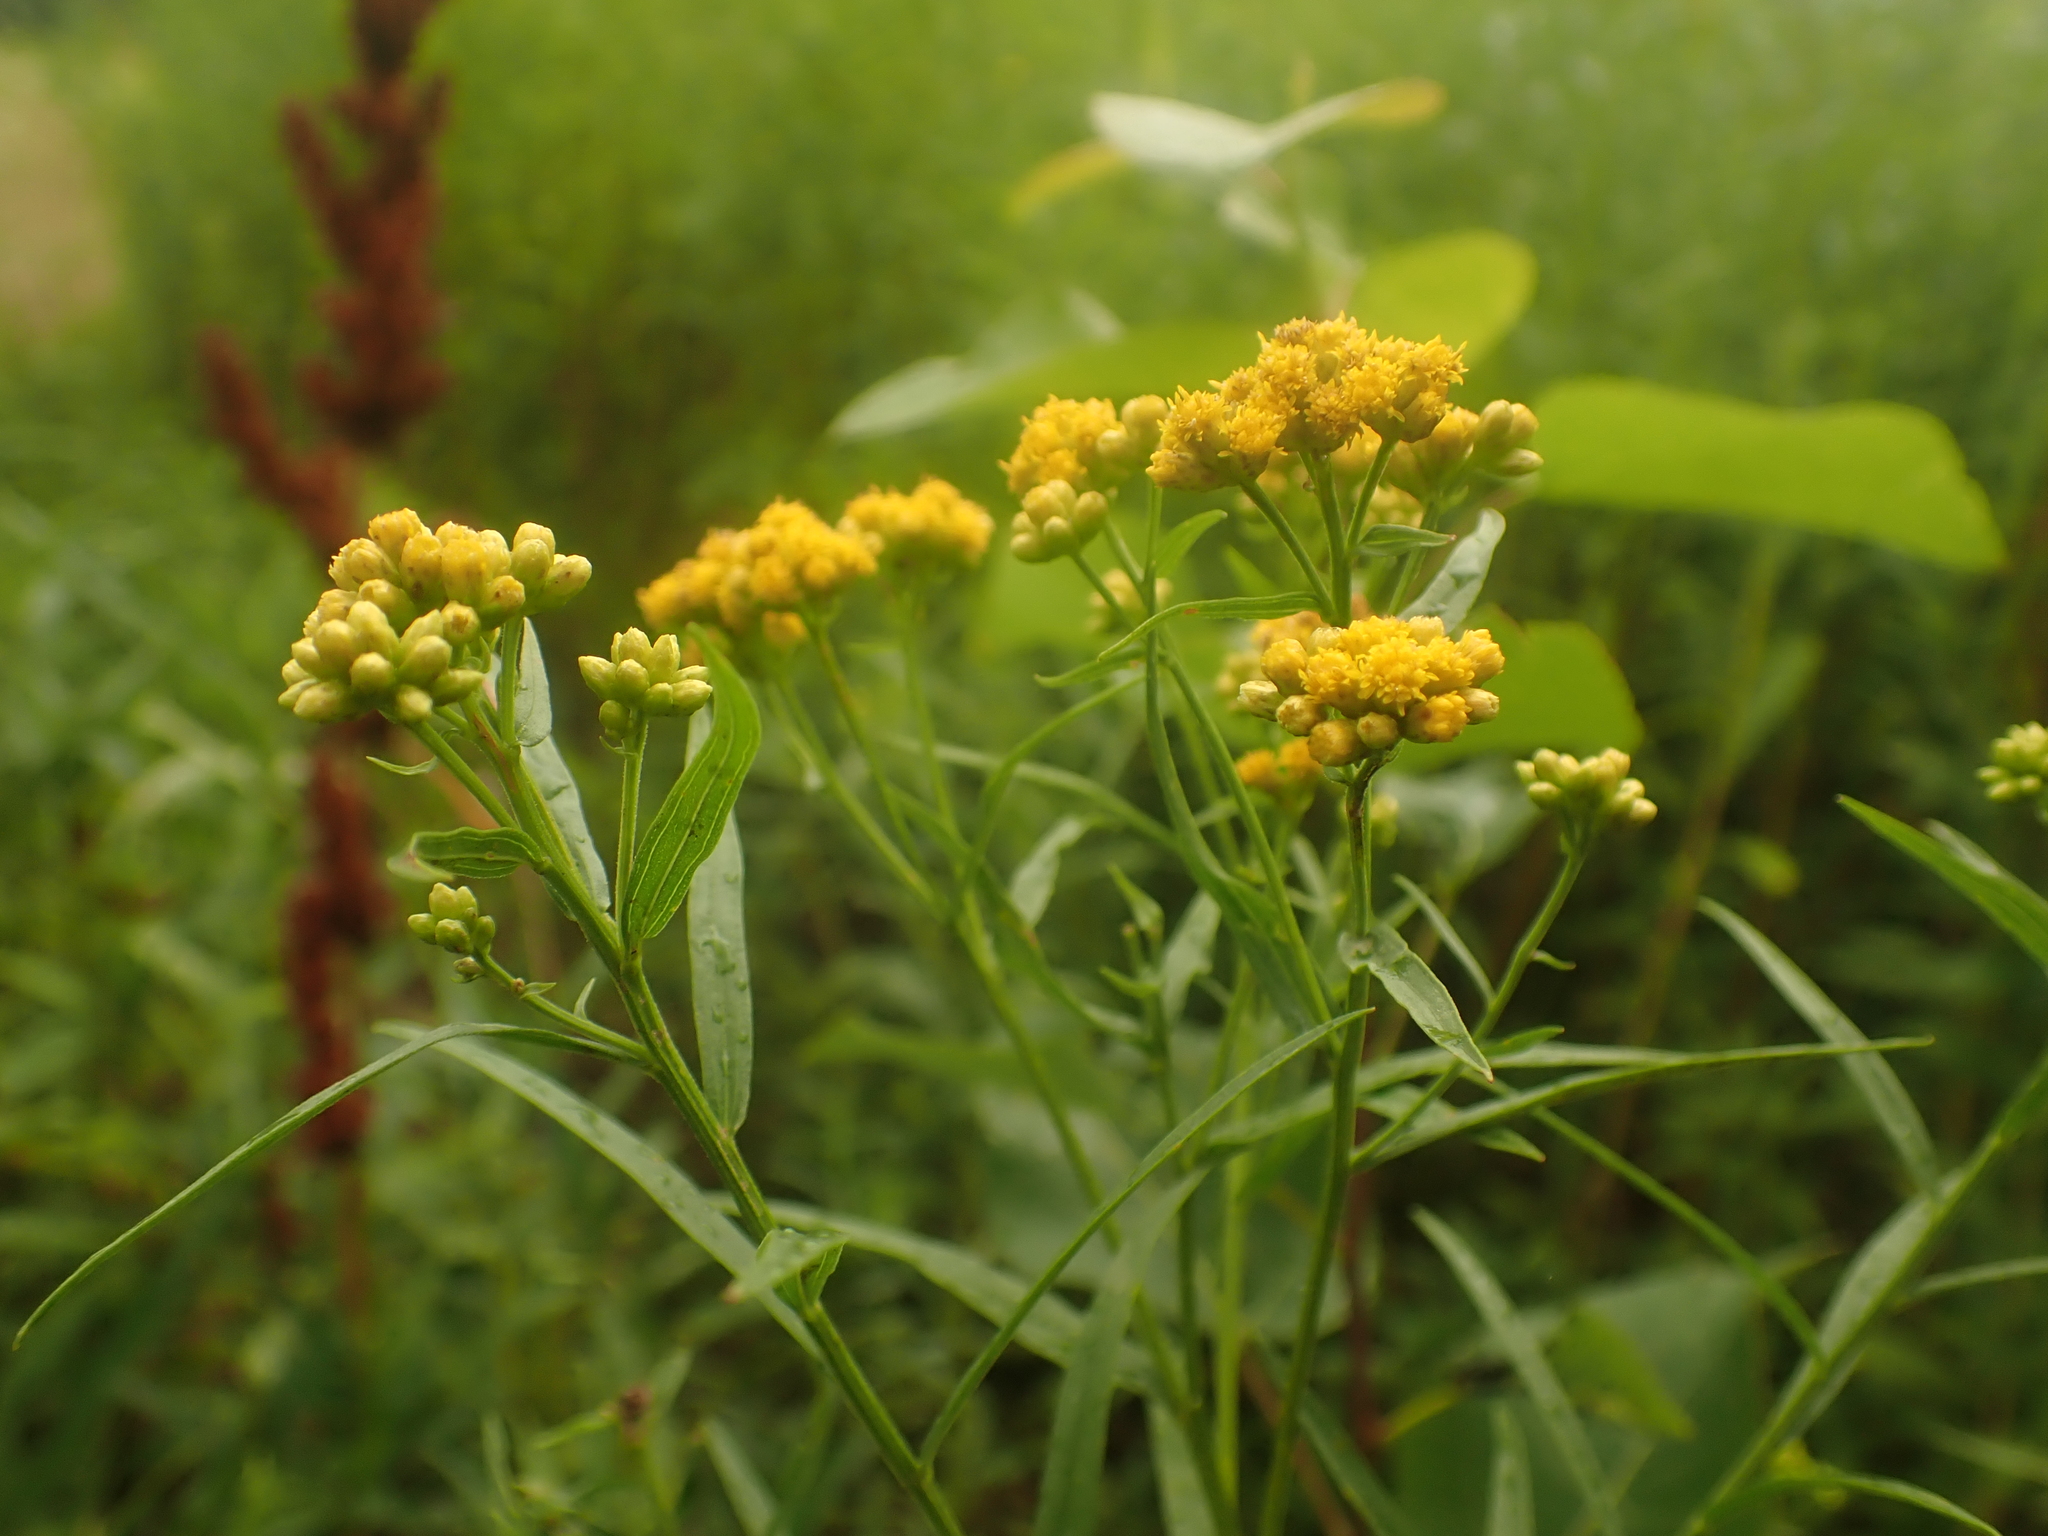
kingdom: Plantae
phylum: Tracheophyta
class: Magnoliopsida
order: Asterales
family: Asteraceae
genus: Euthamia
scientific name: Euthamia graminifolia
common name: Common goldentop
